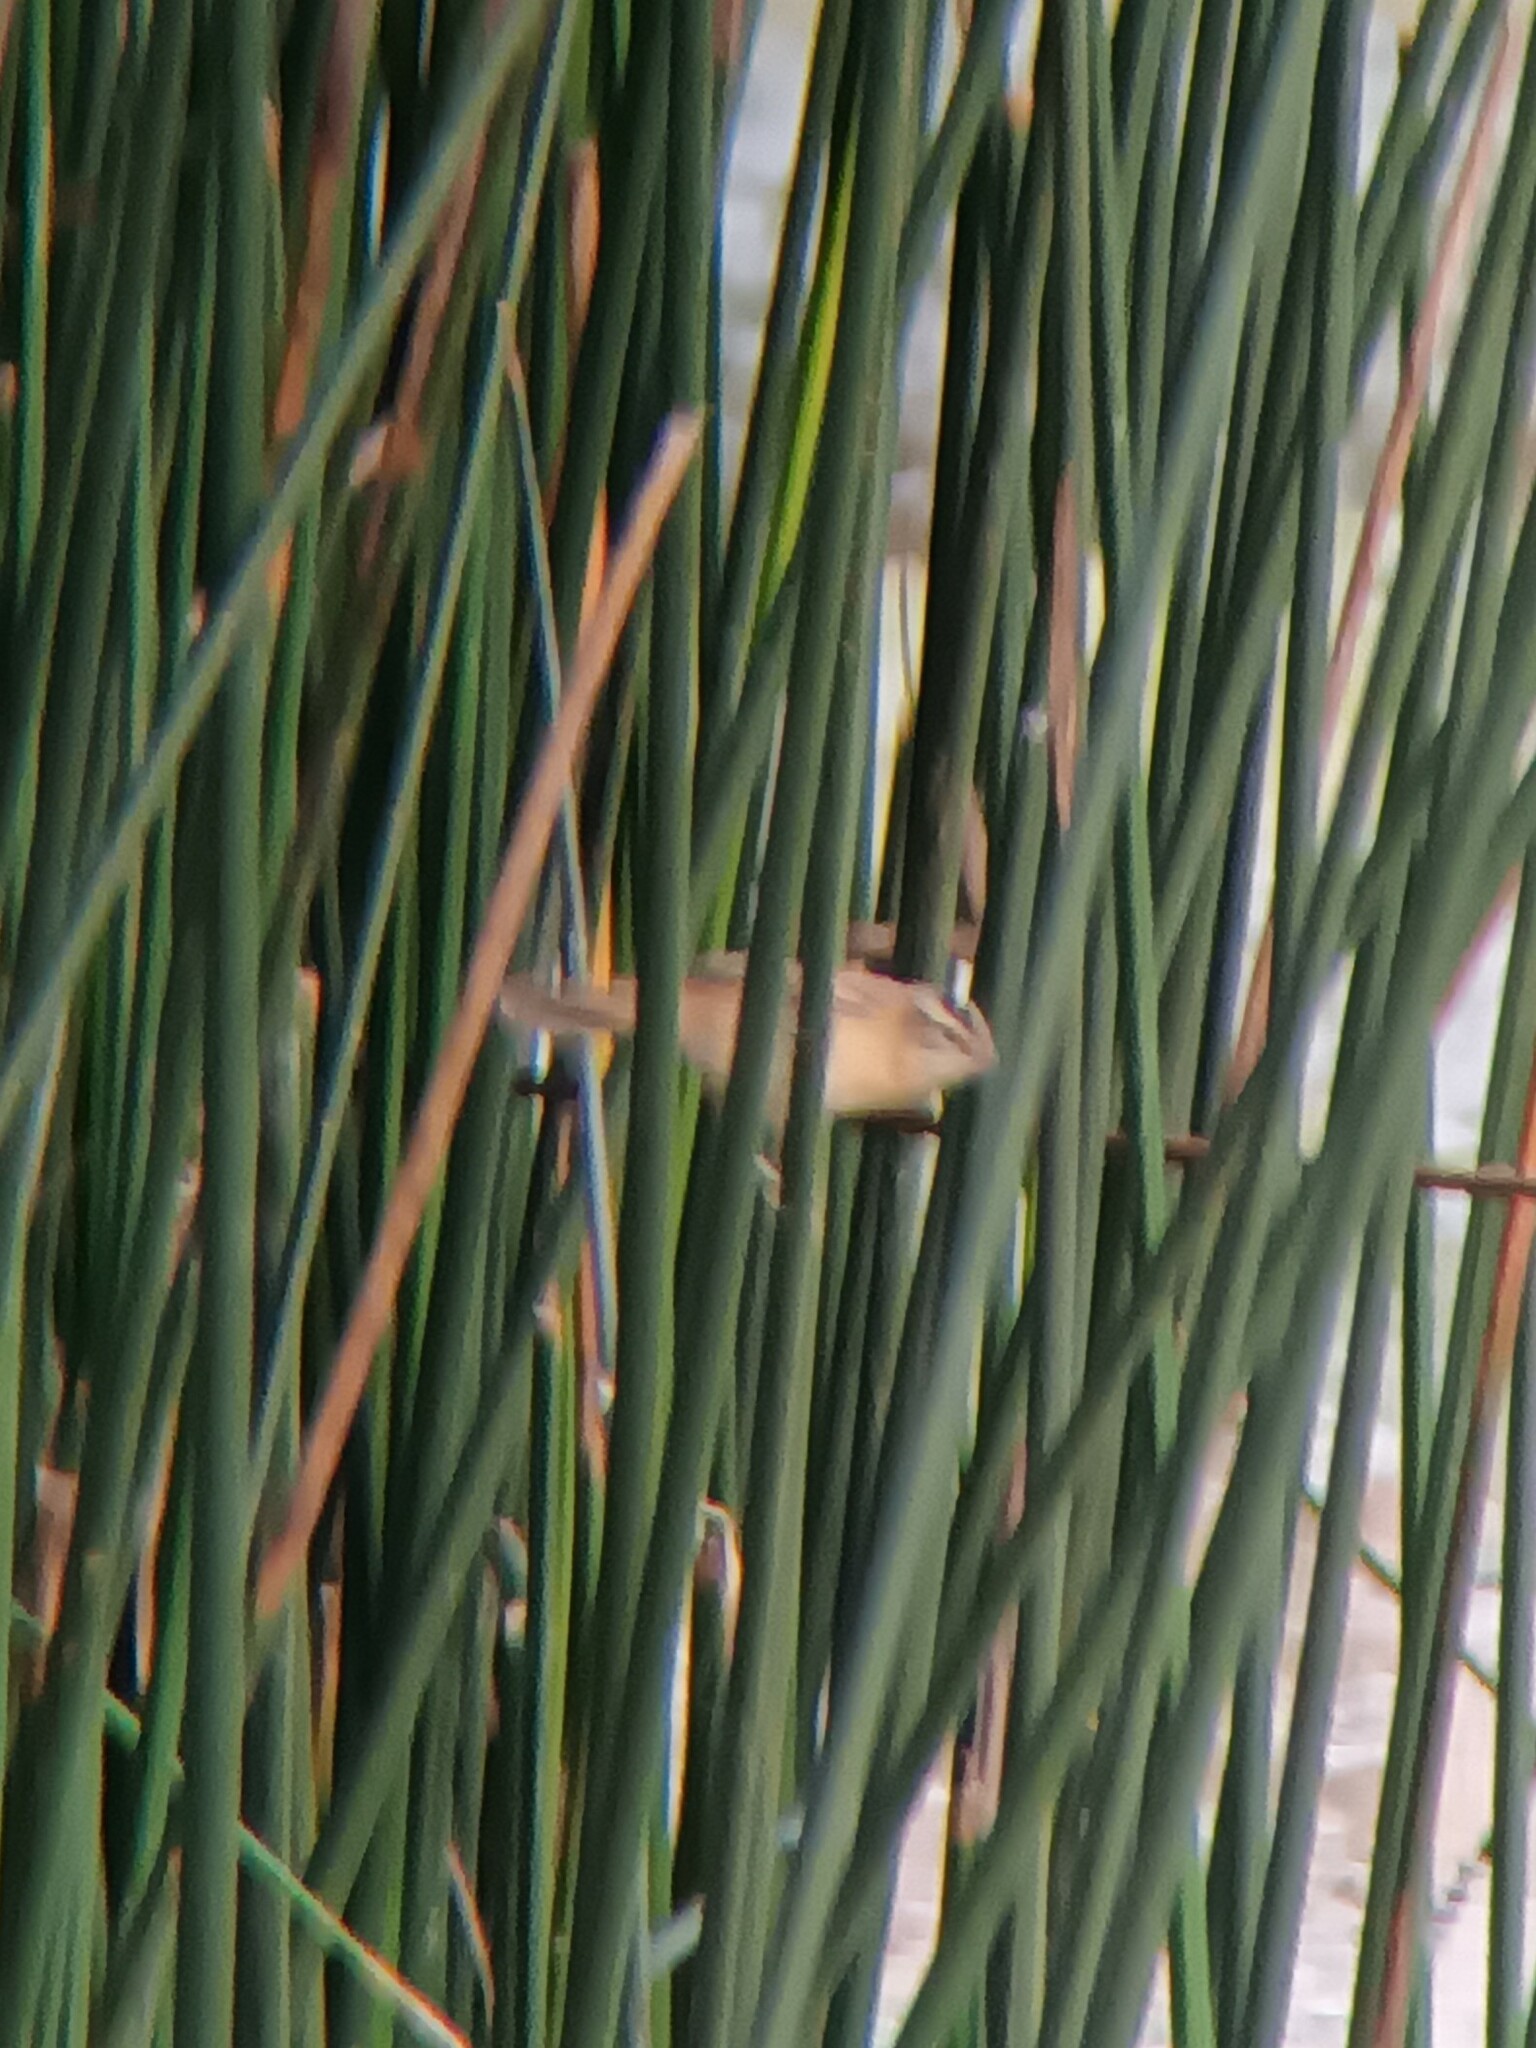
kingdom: Animalia
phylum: Chordata
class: Aves
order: Passeriformes
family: Acrocephalidae
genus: Acrocephalus
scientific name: Acrocephalus schoenobaenus
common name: Sedge warbler
